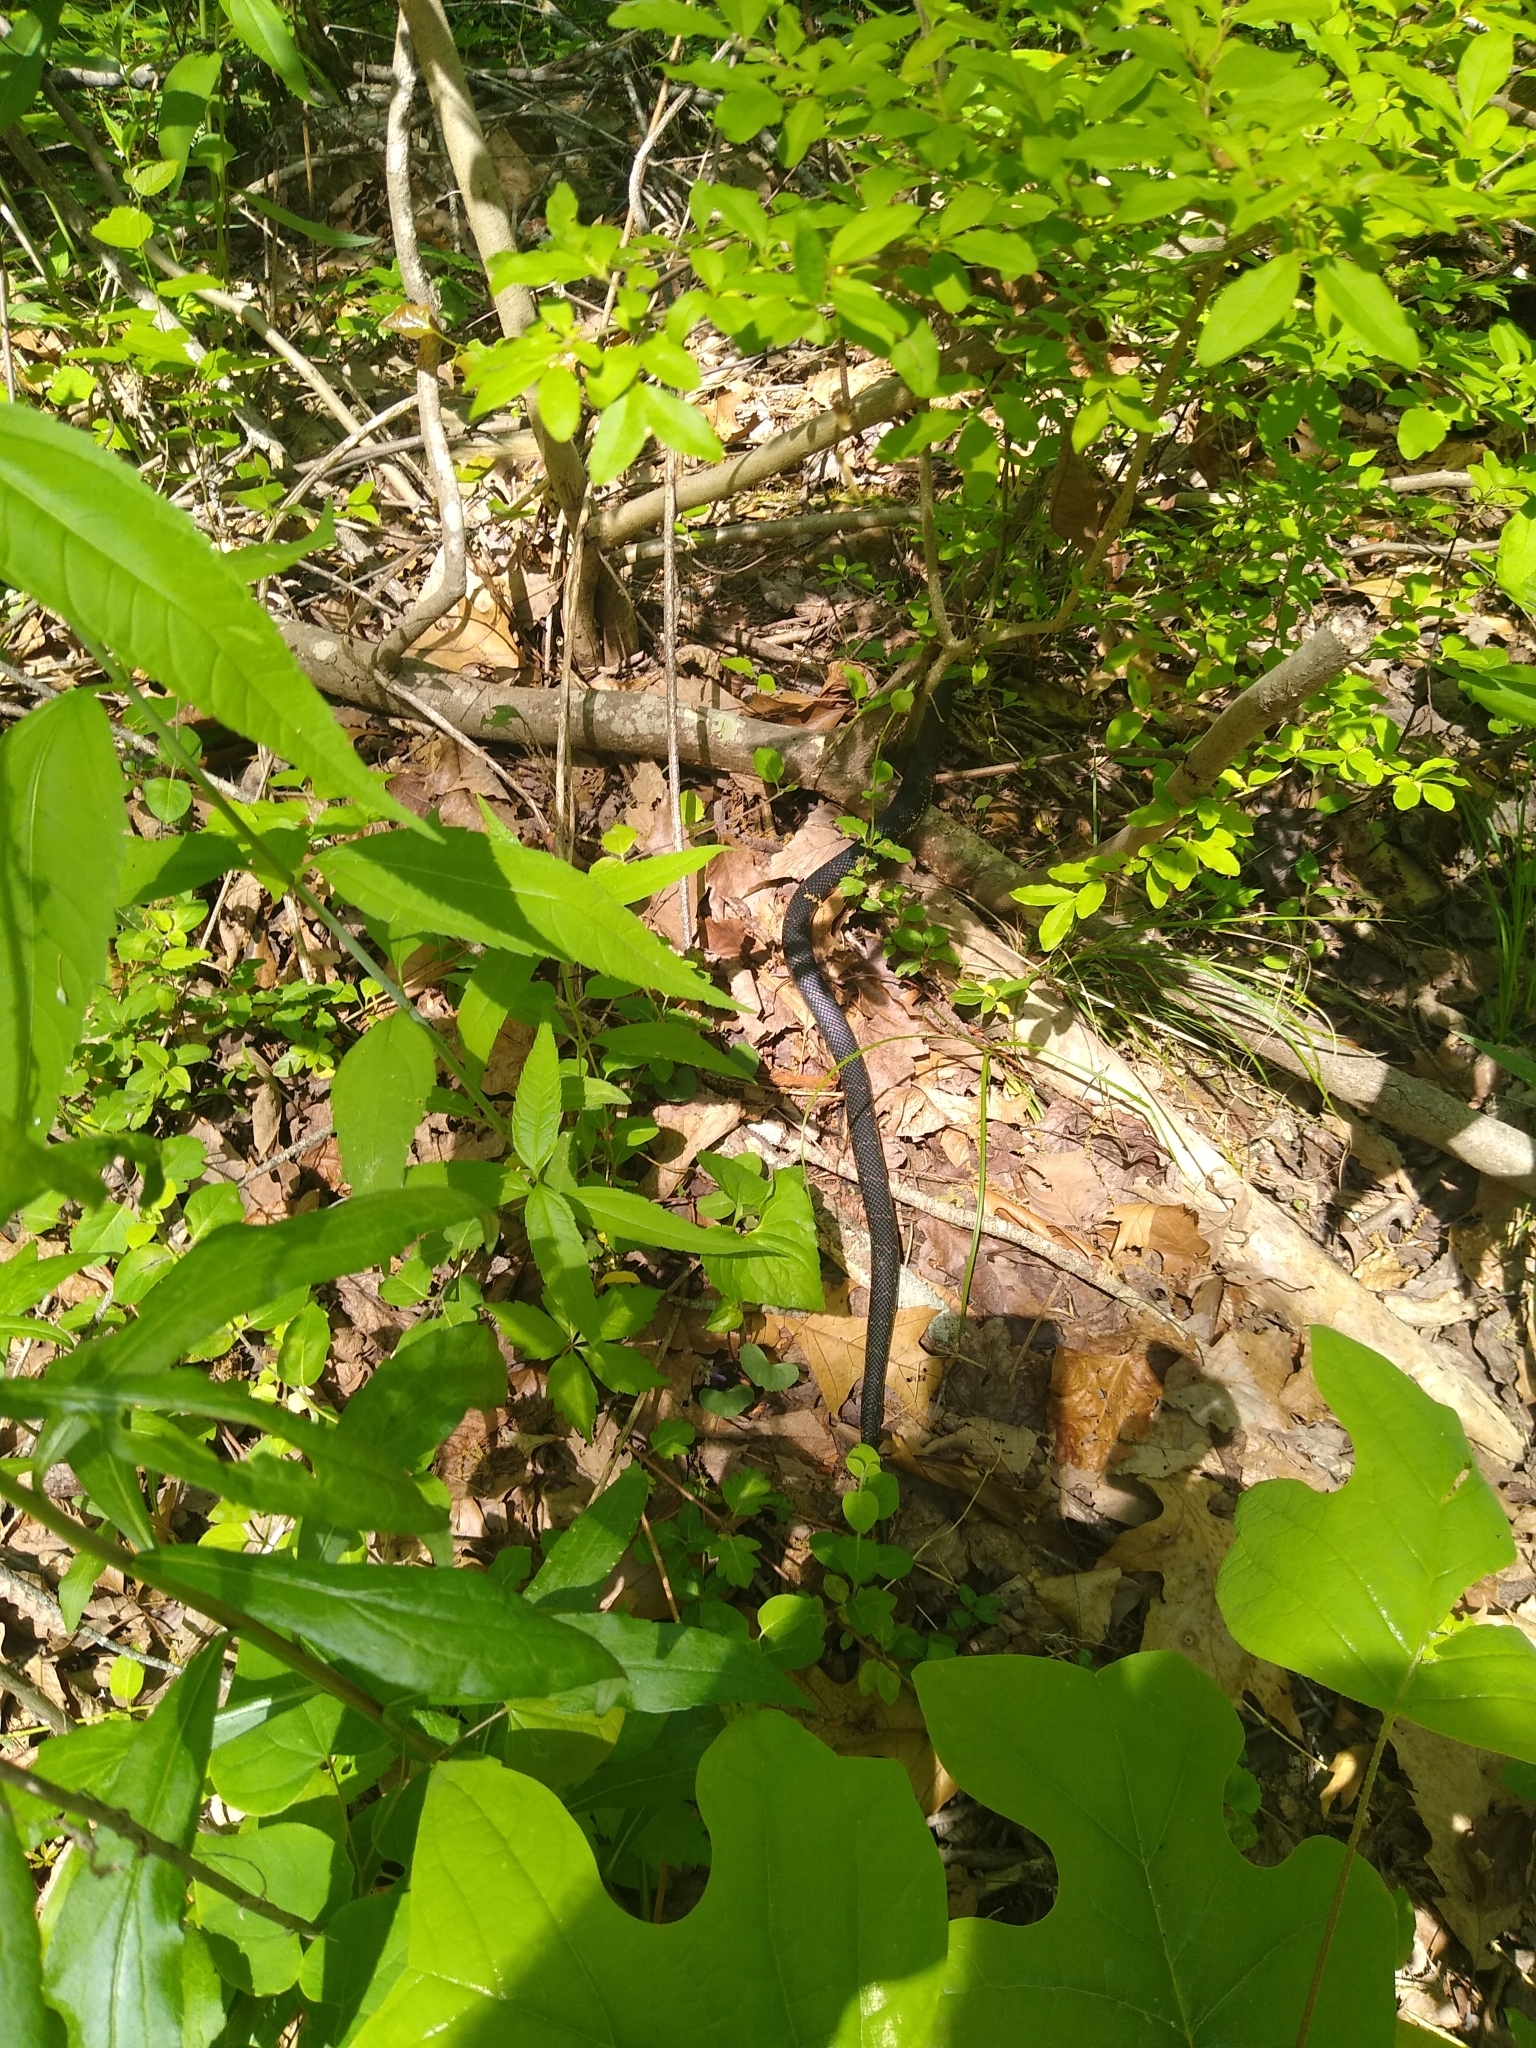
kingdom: Animalia
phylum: Chordata
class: Squamata
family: Colubridae
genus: Lampropeltis
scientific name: Lampropeltis nigra
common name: Black kingsnake
